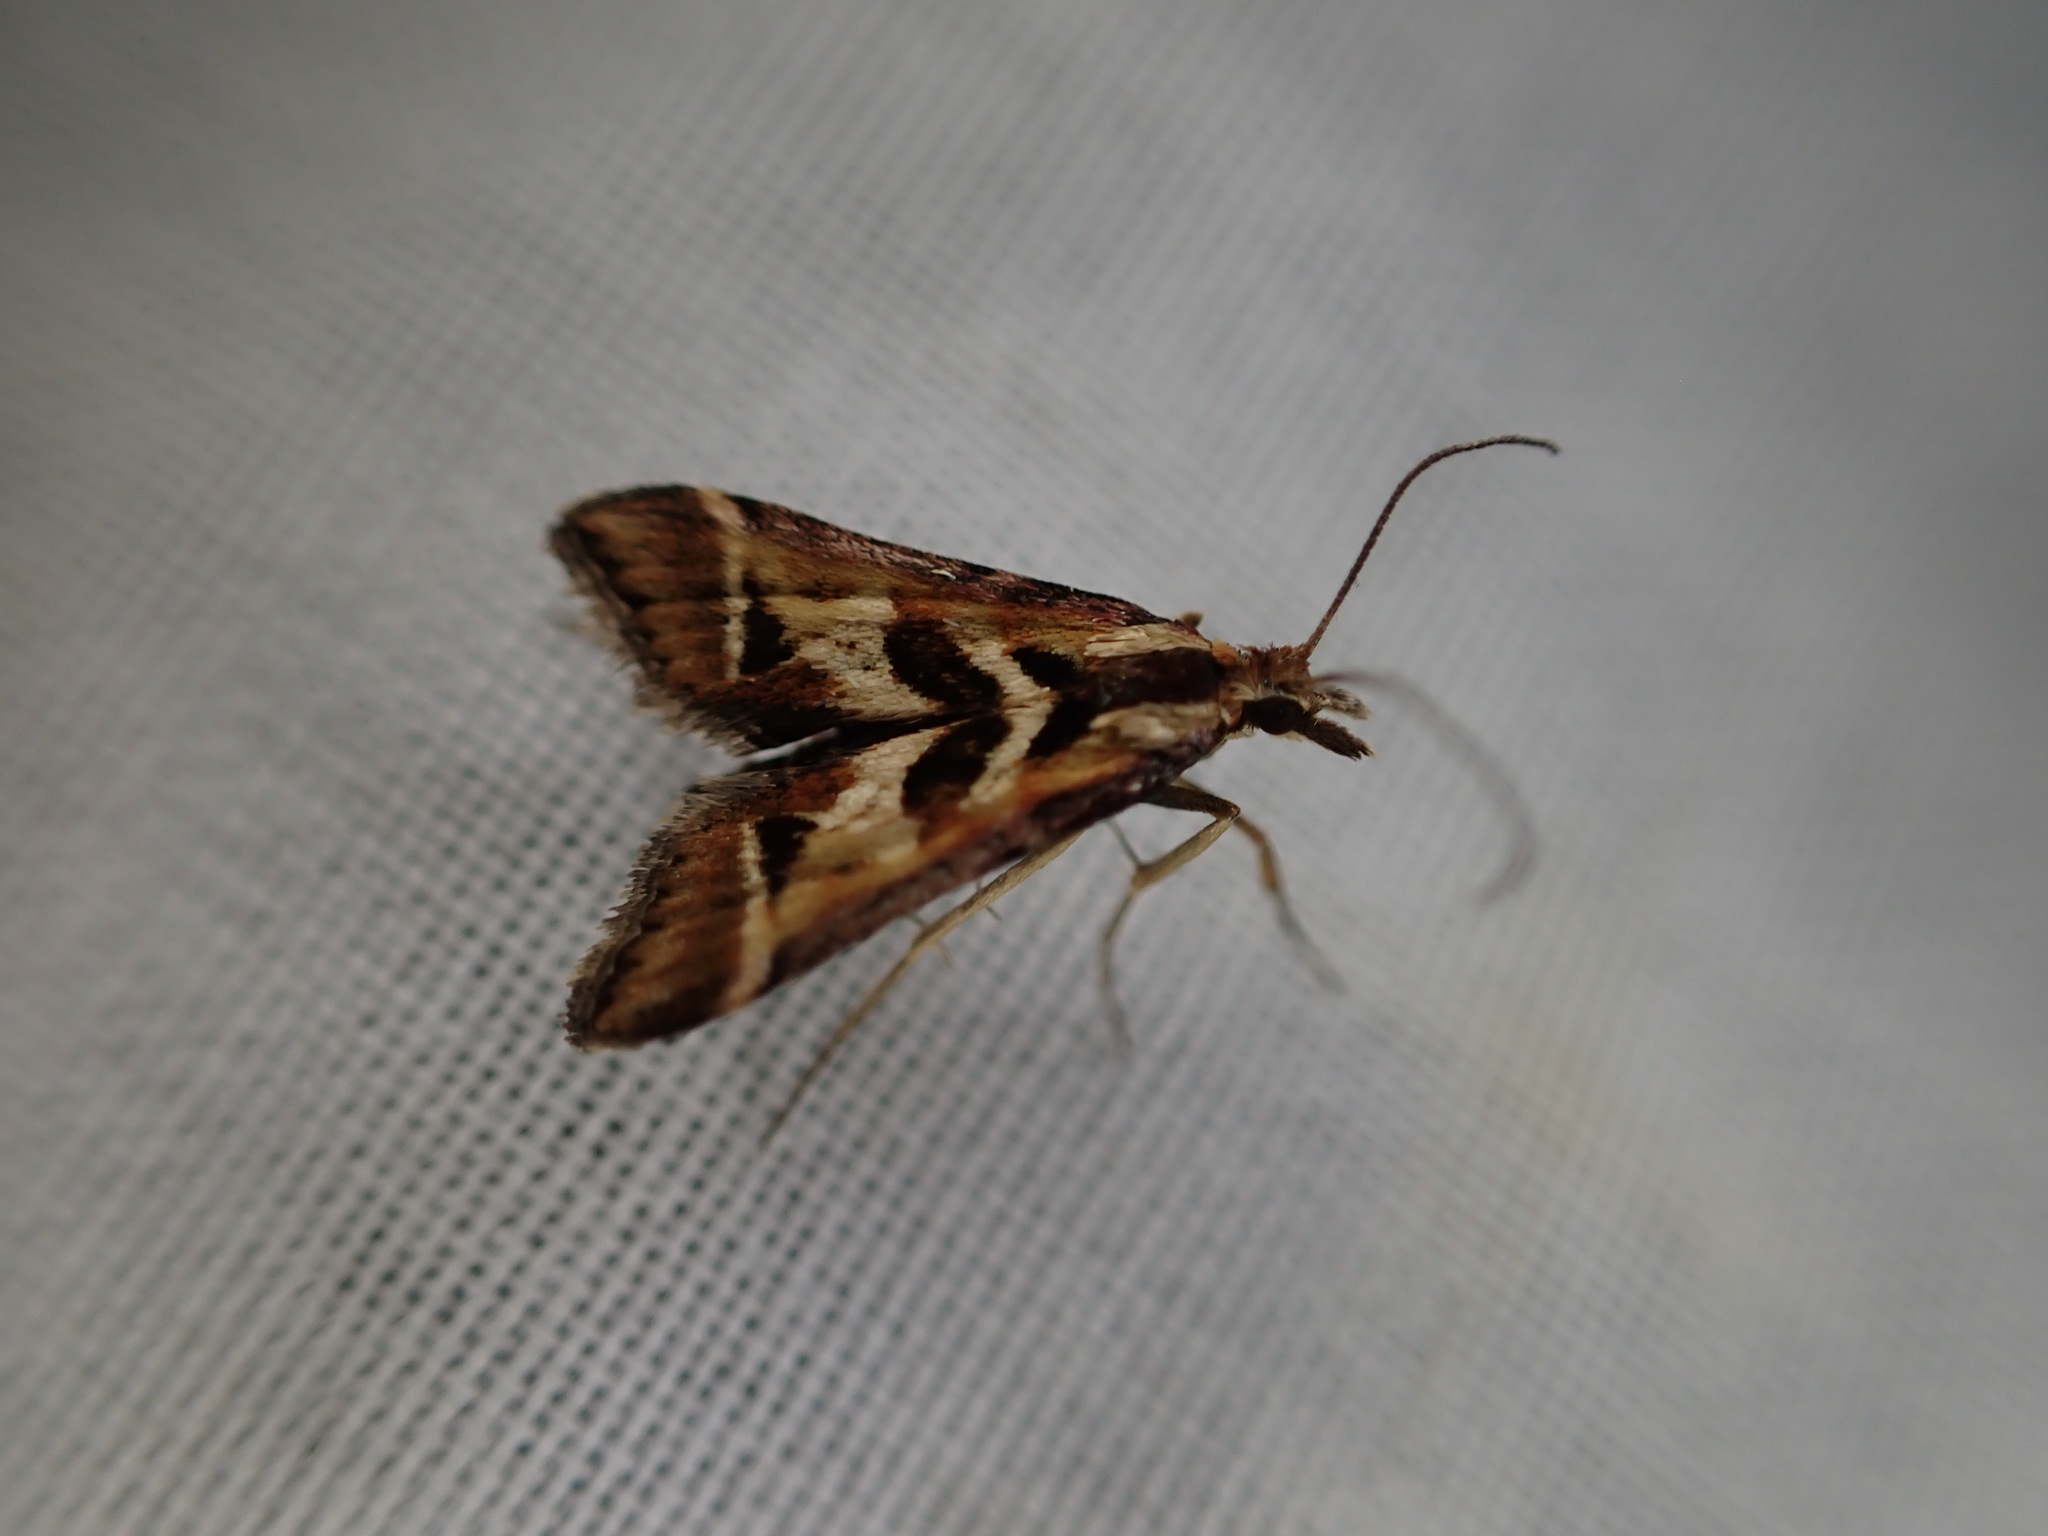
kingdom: Animalia
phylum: Arthropoda
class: Insecta
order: Lepidoptera
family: Crambidae
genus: Diasemia
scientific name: Diasemia grammalis
